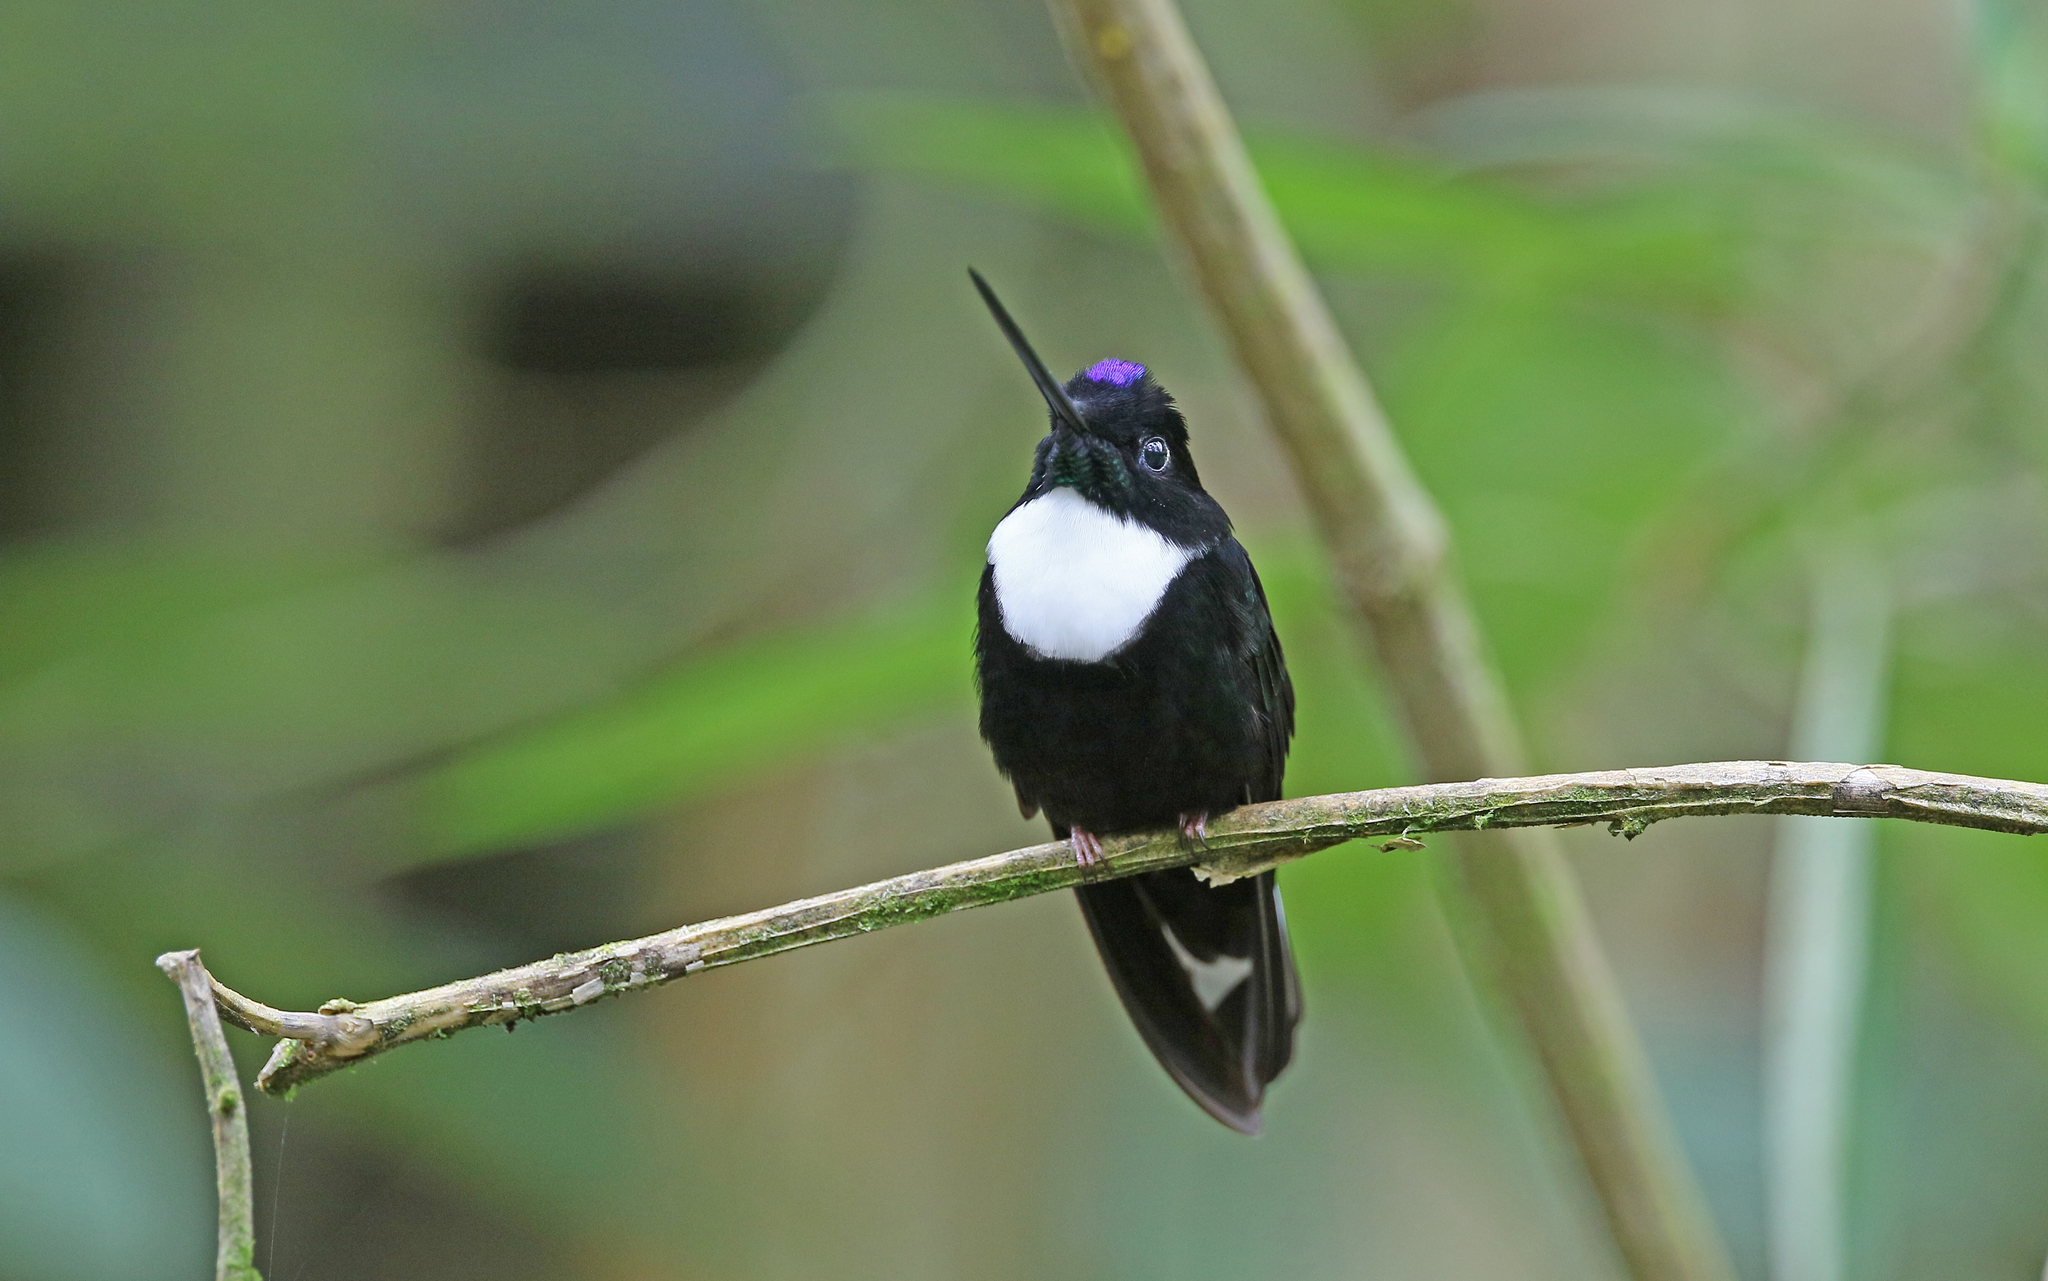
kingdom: Animalia
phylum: Chordata
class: Aves
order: Apodiformes
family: Trochilidae
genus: Coeligena
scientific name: Coeligena torquata
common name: Collared inca
